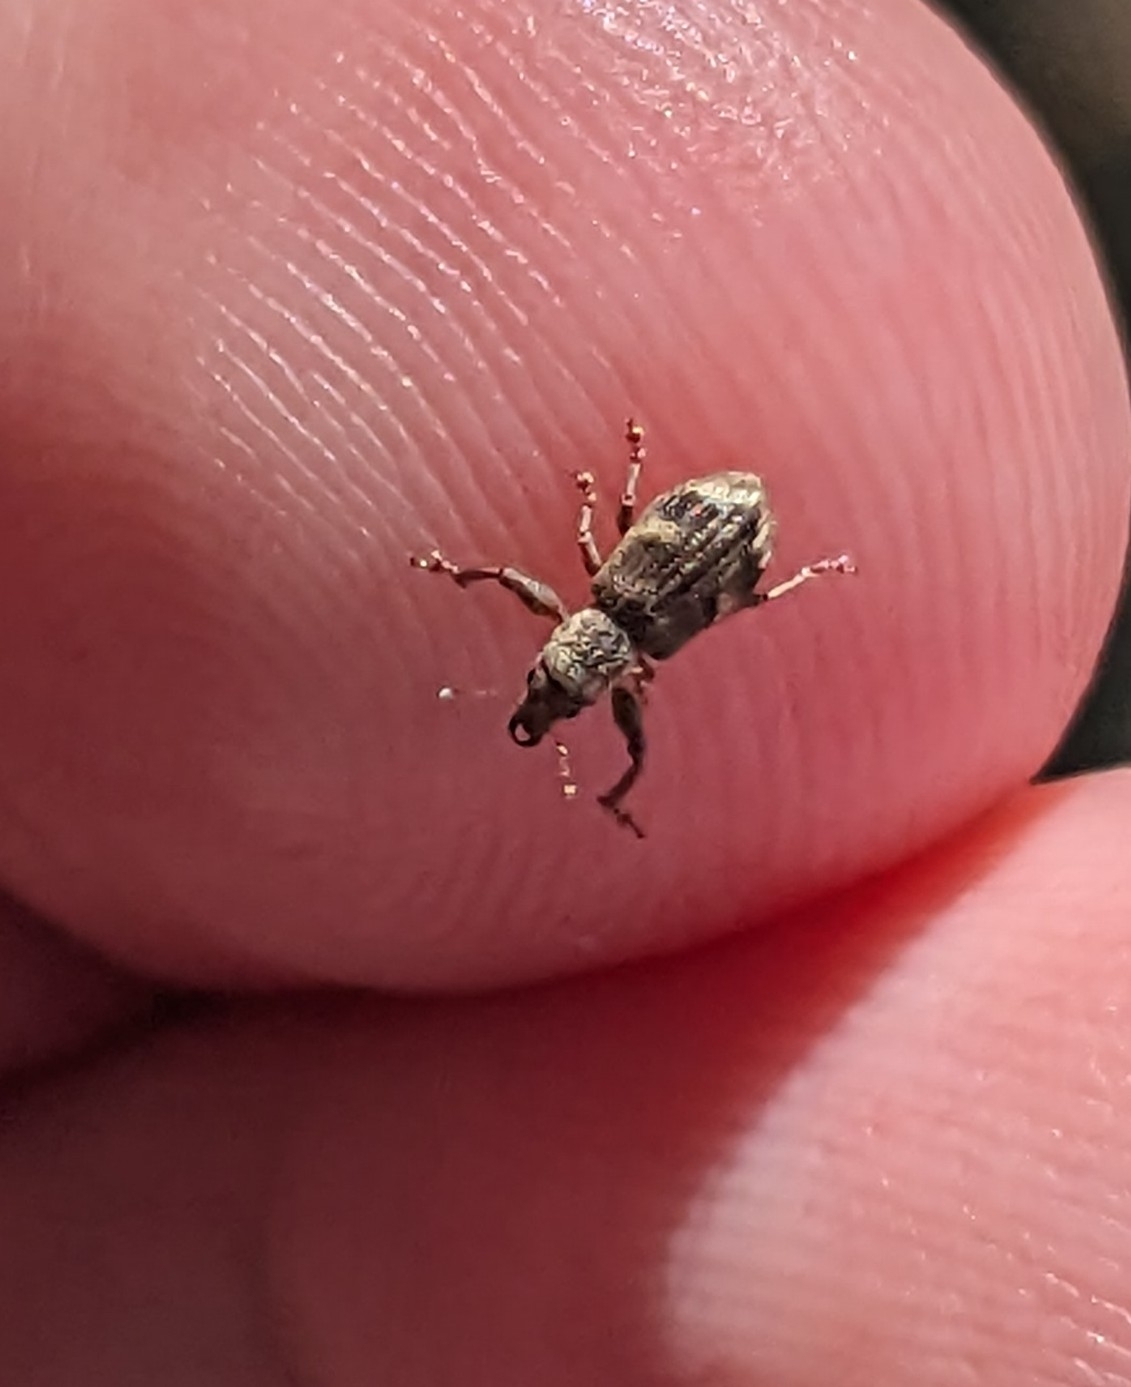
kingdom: Animalia
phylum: Arthropoda
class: Insecta
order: Coleoptera
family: Curculionidae
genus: Pandeleteius
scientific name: Pandeleteius cinereus
